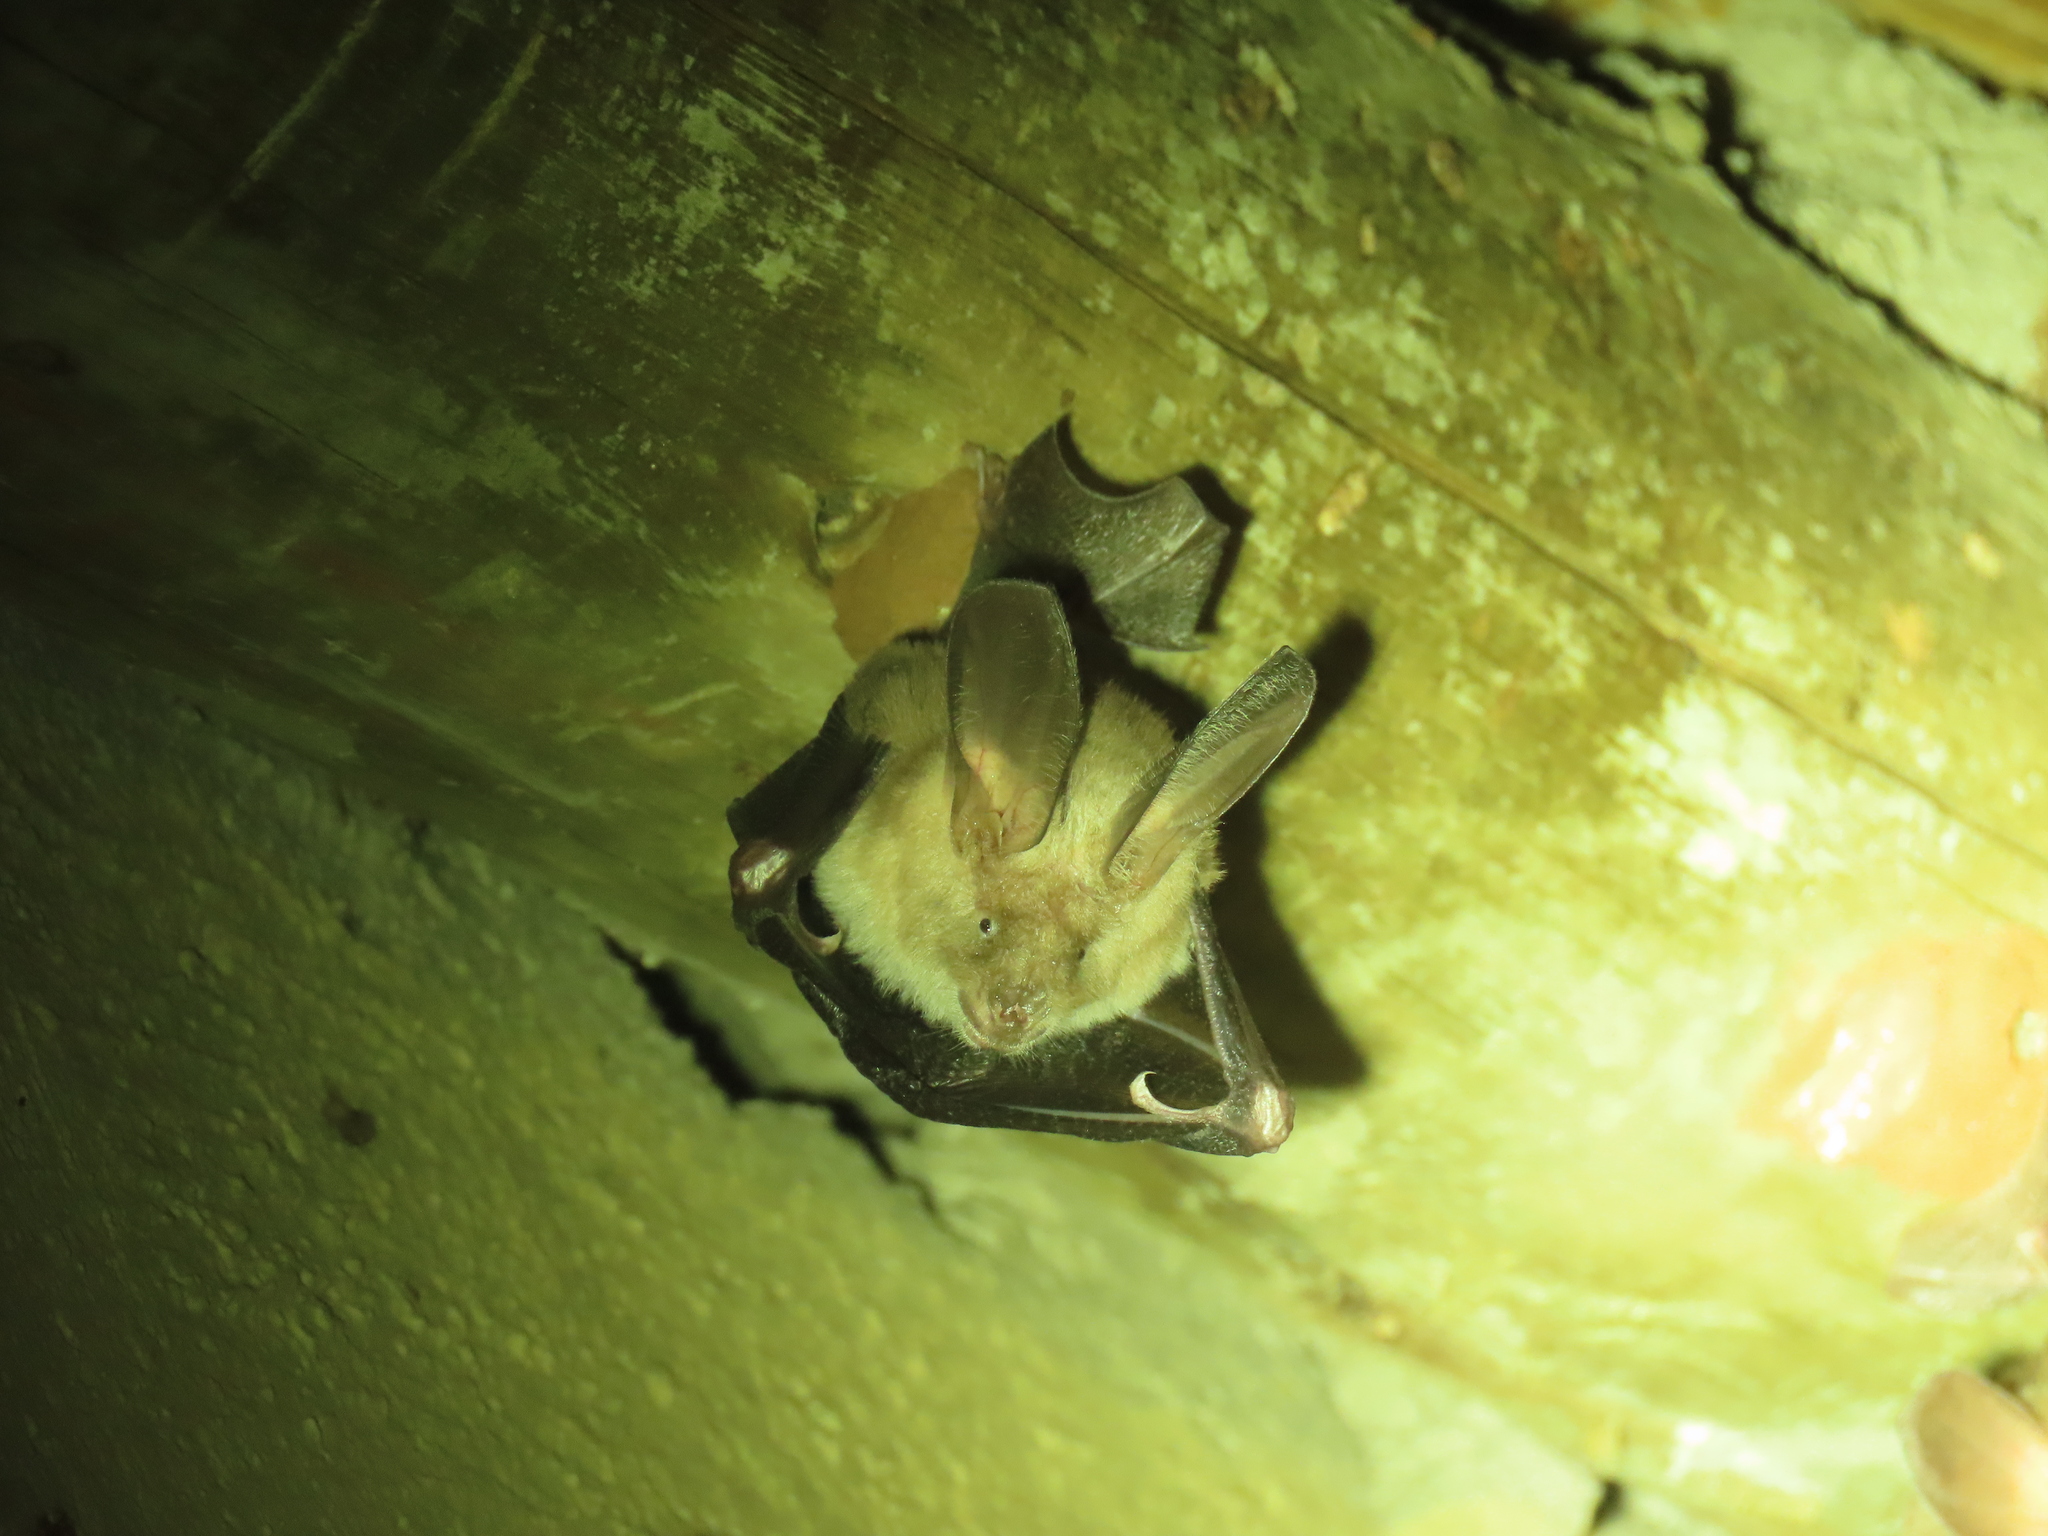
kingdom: Animalia
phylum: Chordata
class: Mammalia
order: Chiroptera
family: Nycteridae
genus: Nycteris
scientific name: Nycteris thebaica
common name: Egyptian slit-faced bat
